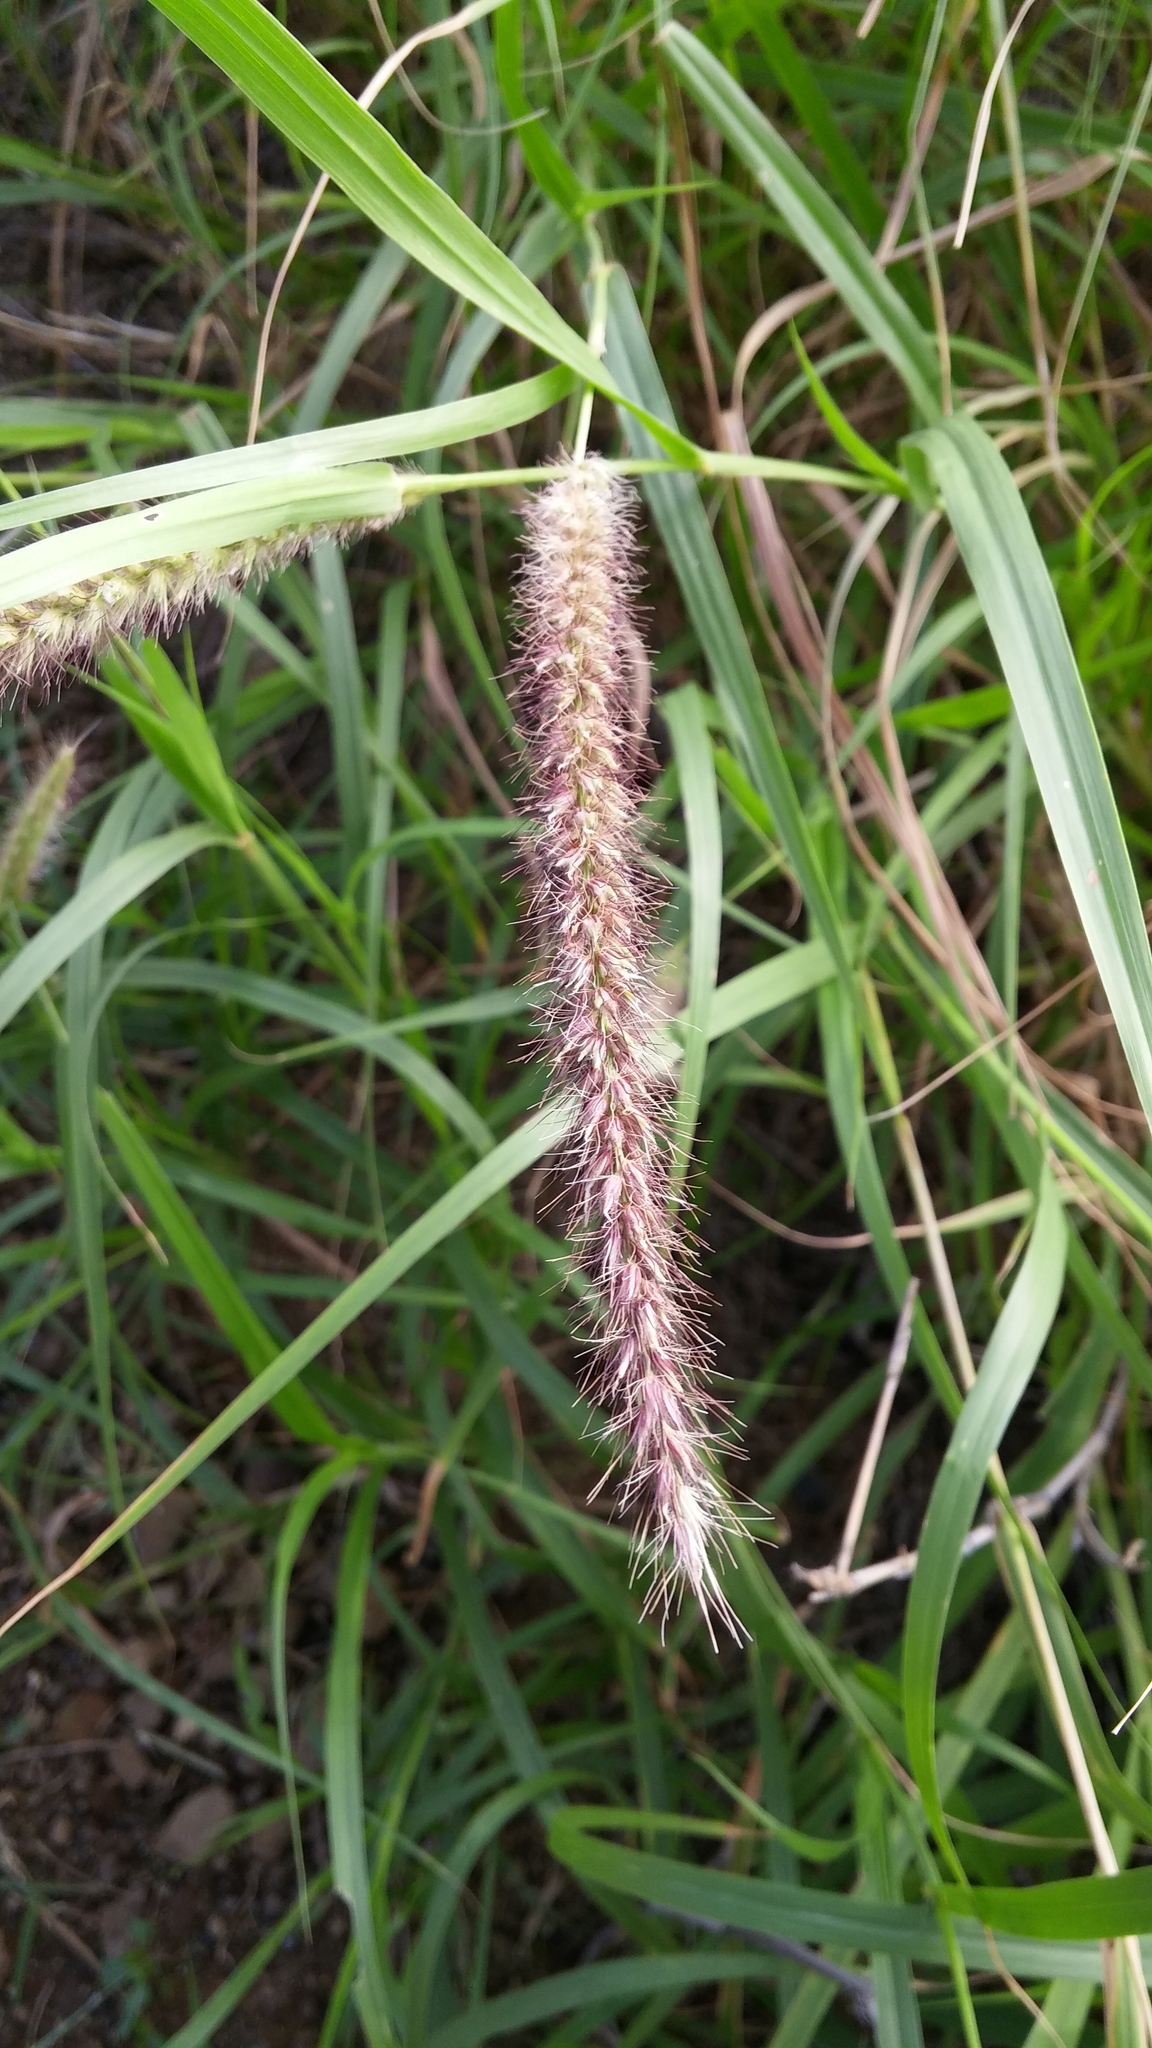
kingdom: Plantae
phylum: Tracheophyta
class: Liliopsida
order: Poales
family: Poaceae
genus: Cenchrus
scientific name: Cenchrus ciliaris
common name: Buffelgrass
